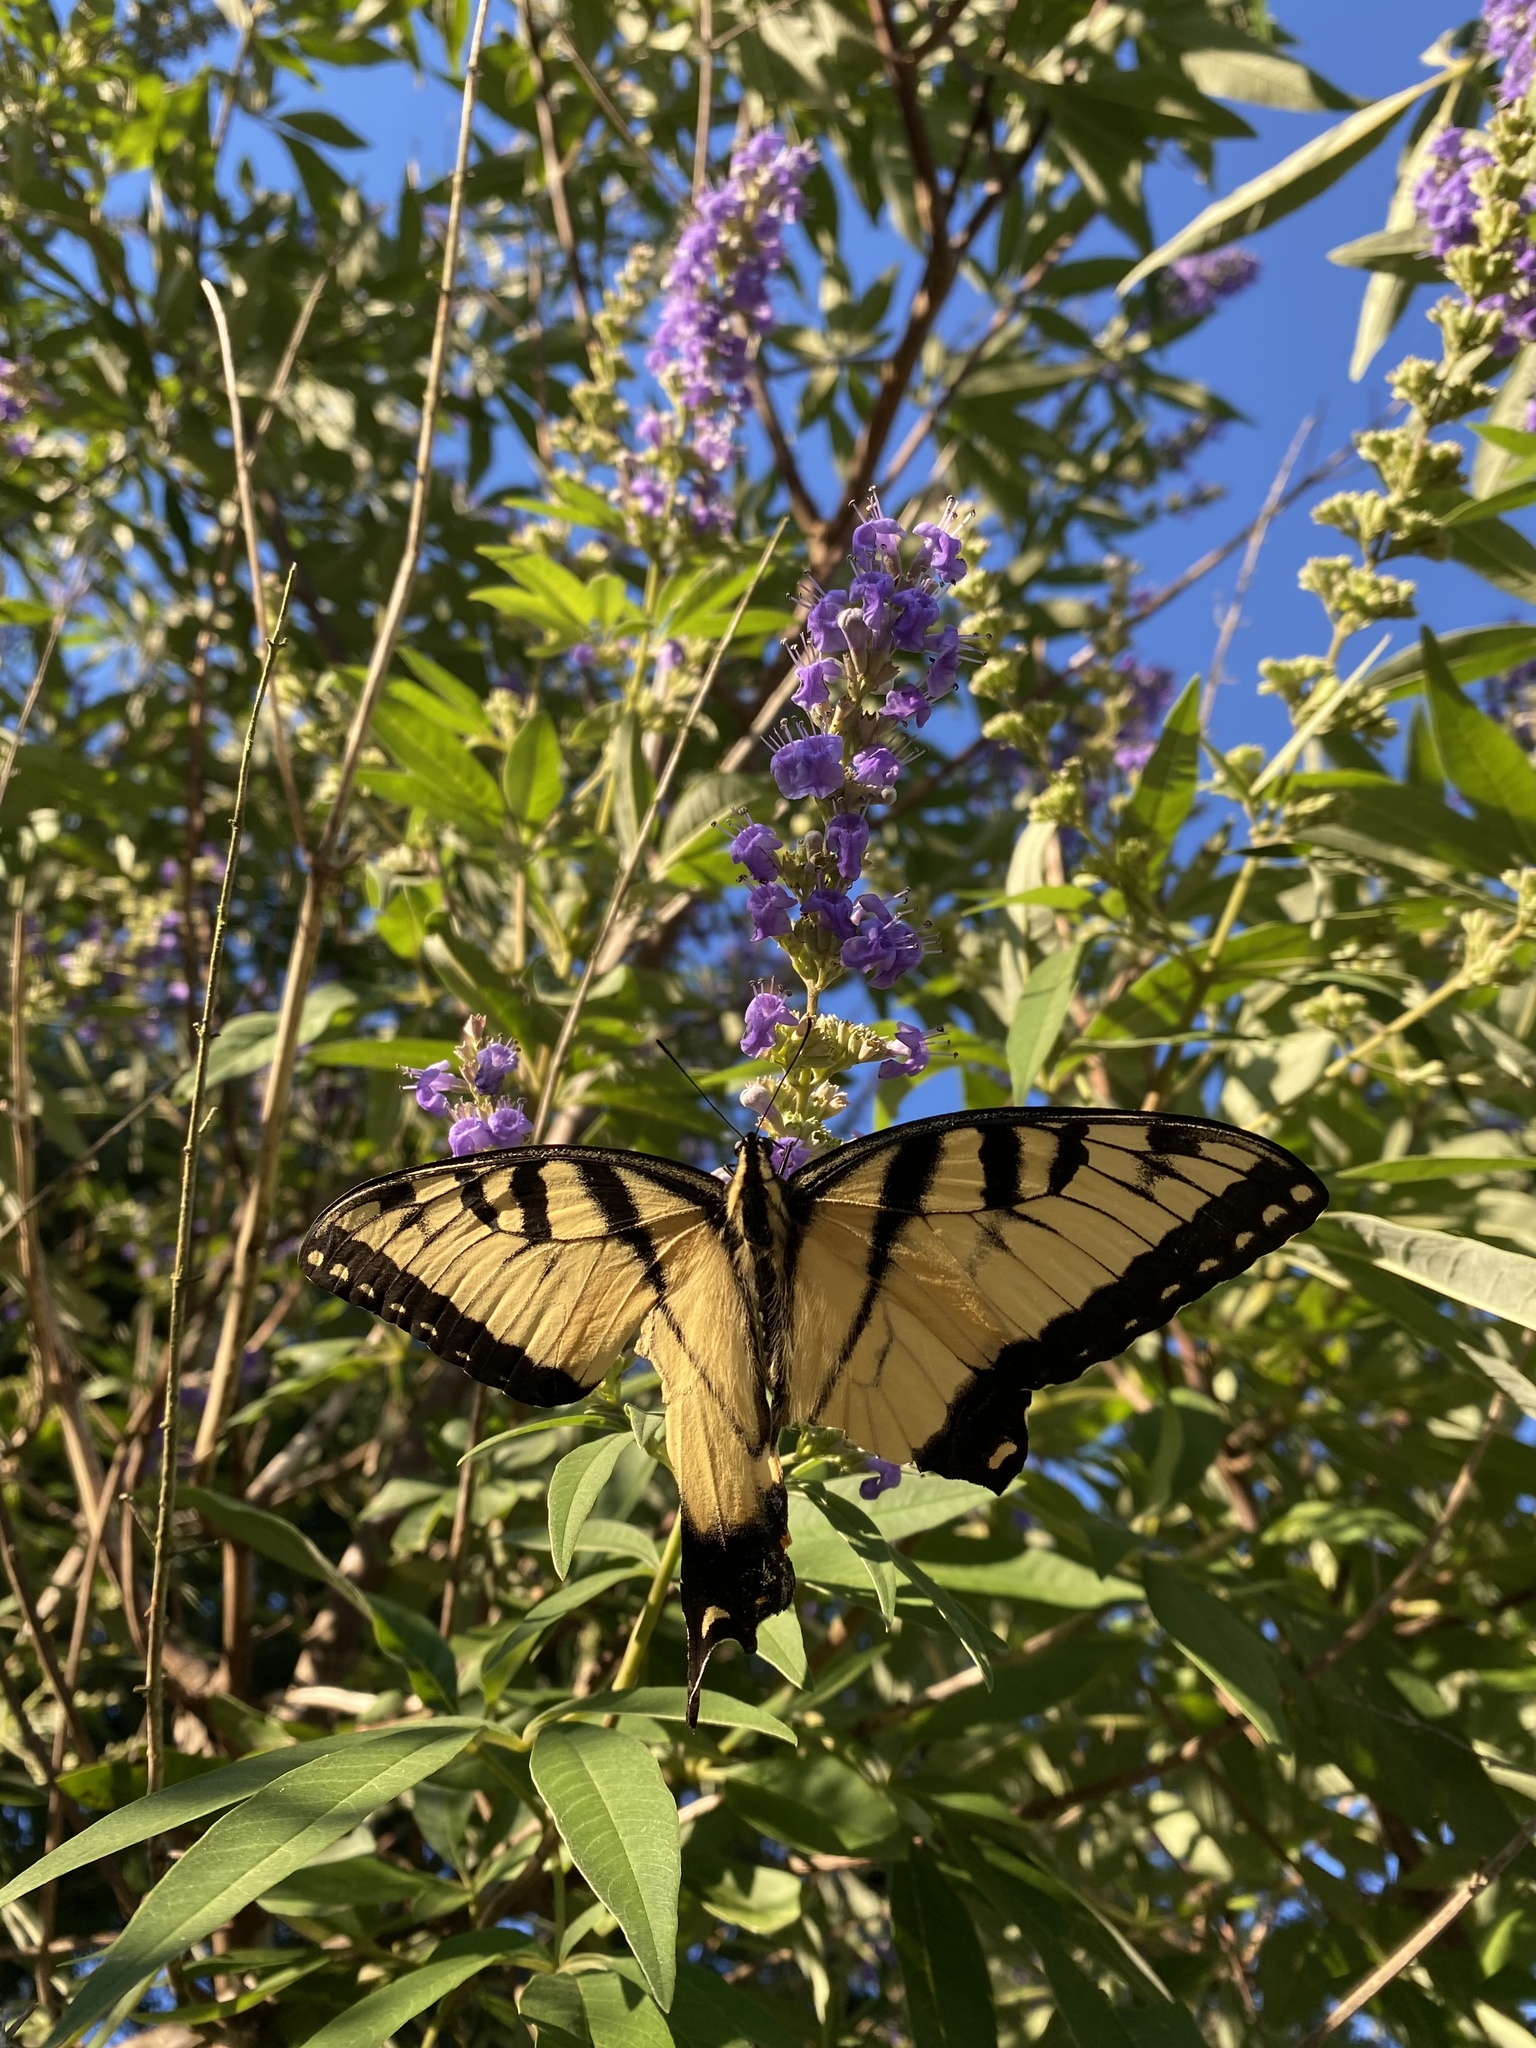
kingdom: Animalia
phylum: Arthropoda
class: Insecta
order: Lepidoptera
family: Papilionidae
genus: Papilio
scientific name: Papilio glaucus
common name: Tiger swallowtail
